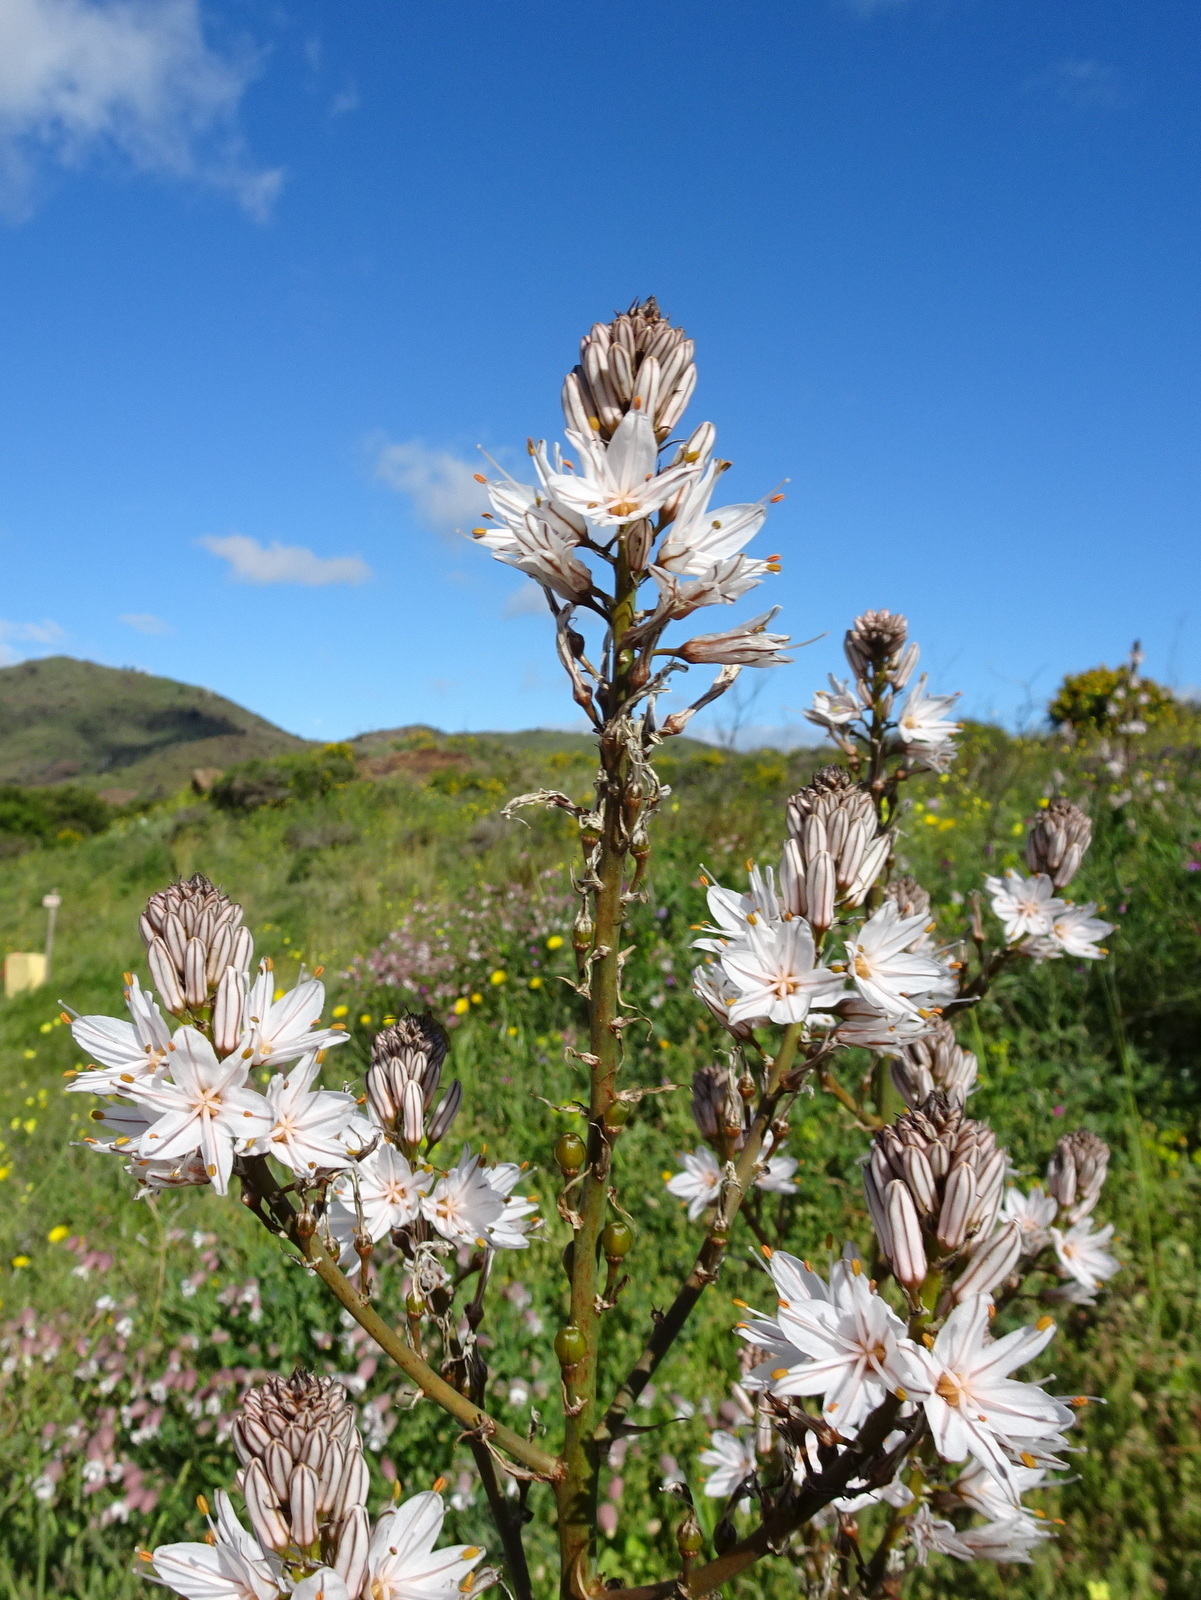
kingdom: Plantae
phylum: Tracheophyta
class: Liliopsida
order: Asparagales
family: Asphodelaceae
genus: Asphodelus
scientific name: Asphodelus ramosus
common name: Silverrod
